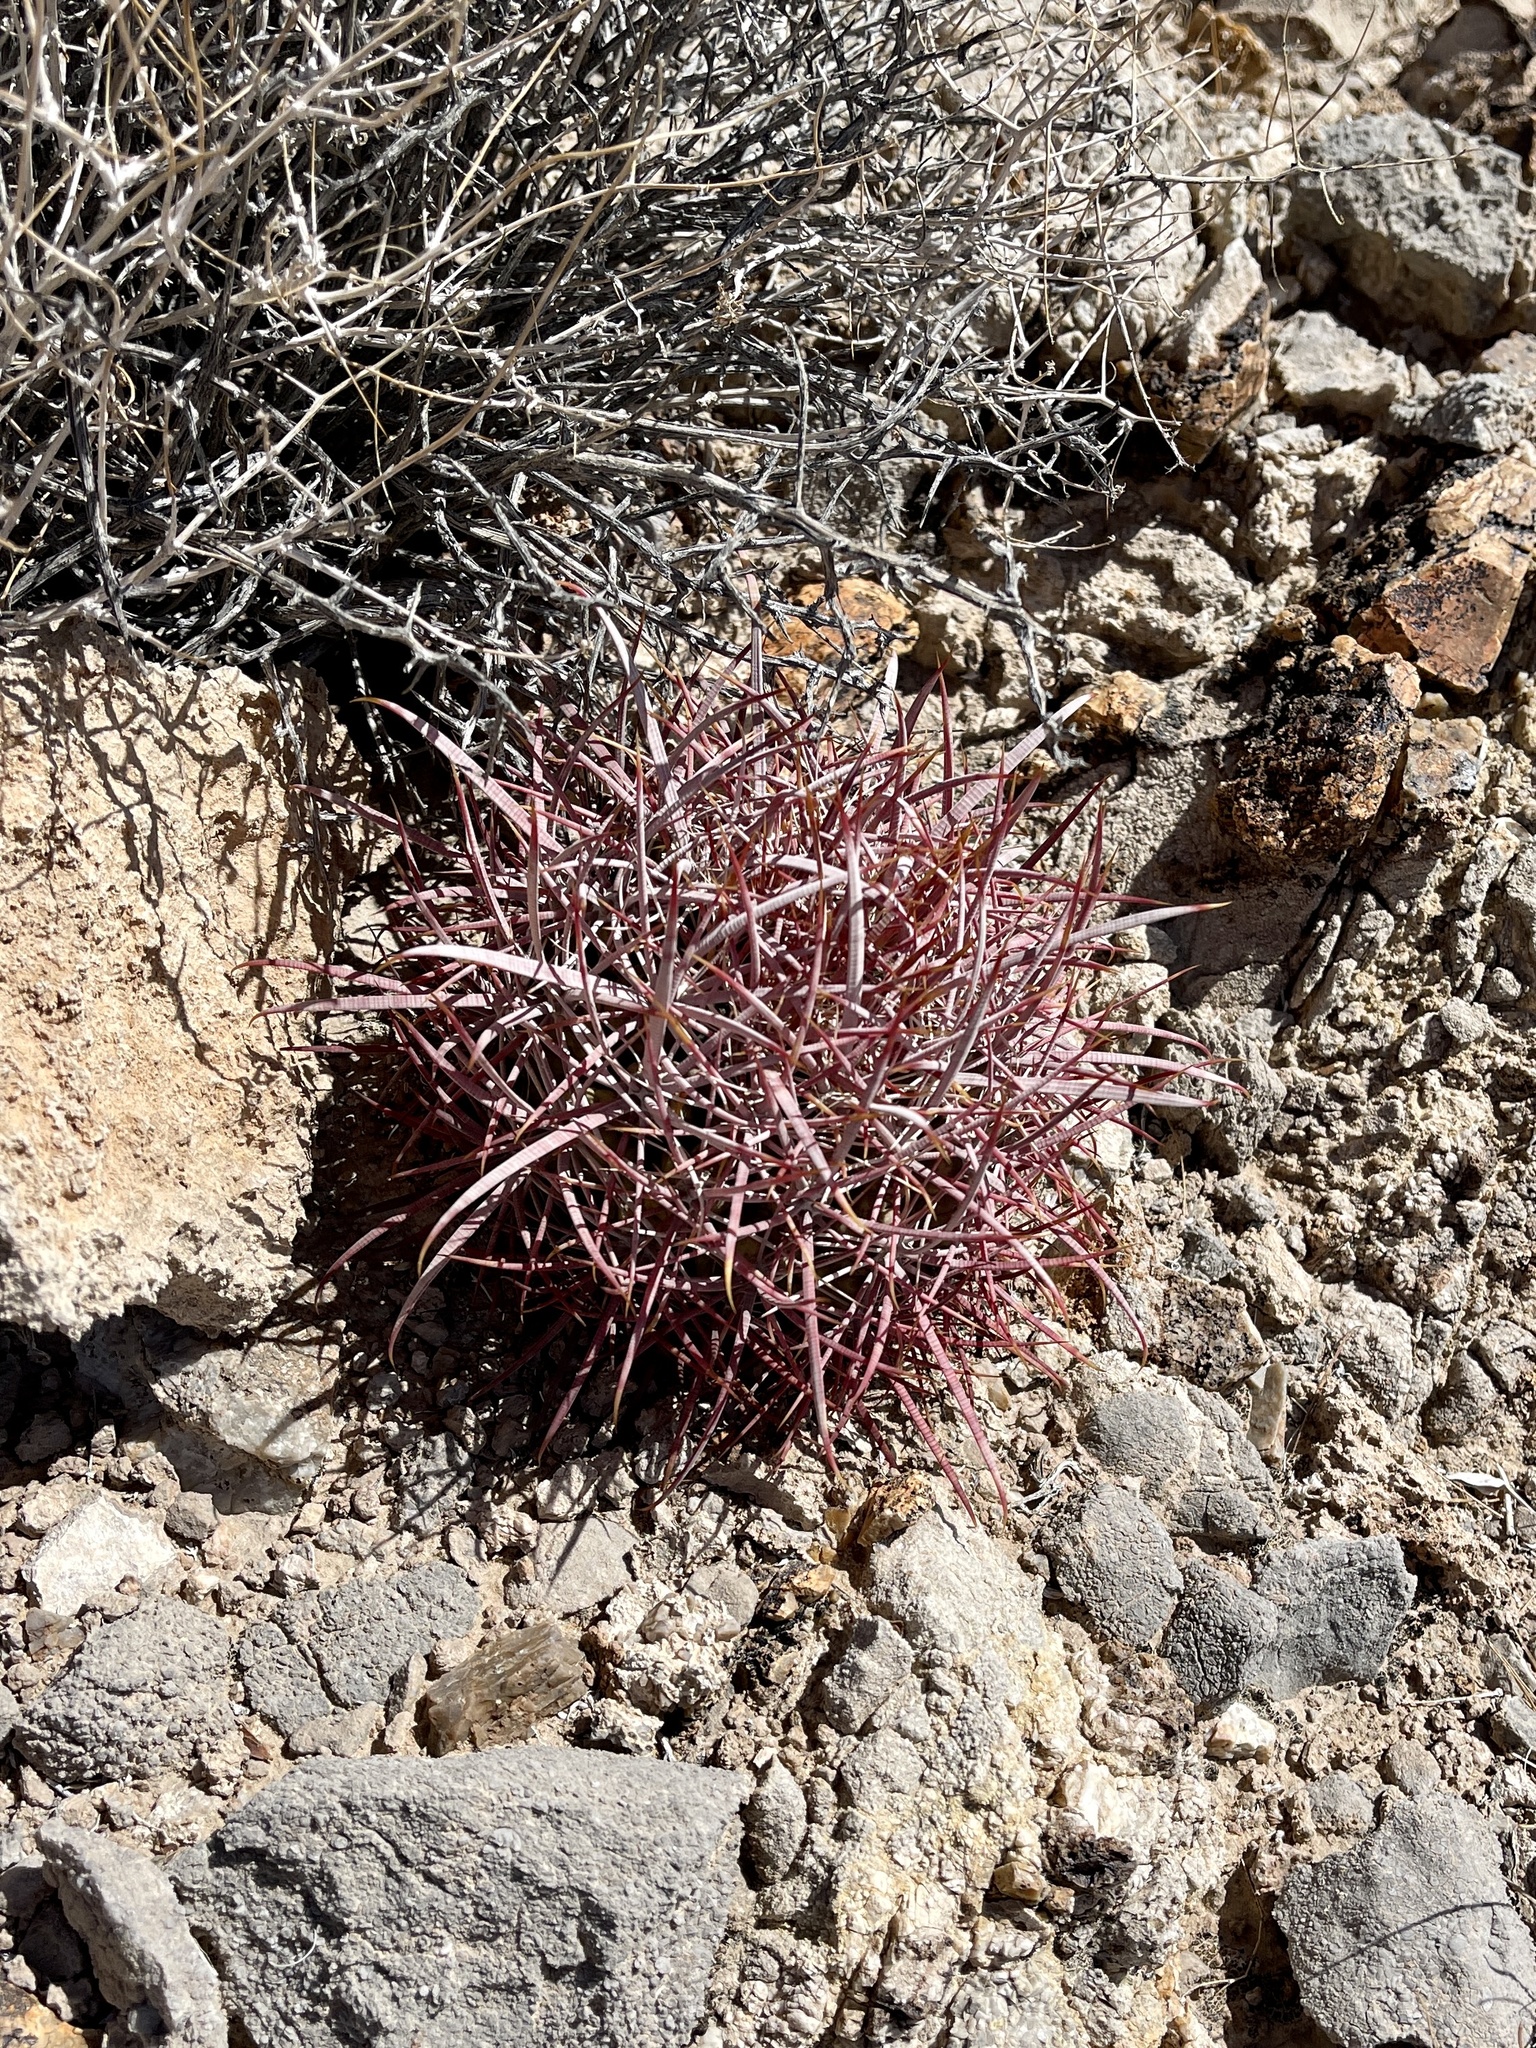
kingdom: Plantae
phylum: Tracheophyta
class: Magnoliopsida
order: Caryophyllales
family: Cactaceae
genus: Ferocactus
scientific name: Ferocactus cylindraceus
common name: California barrel cactus
